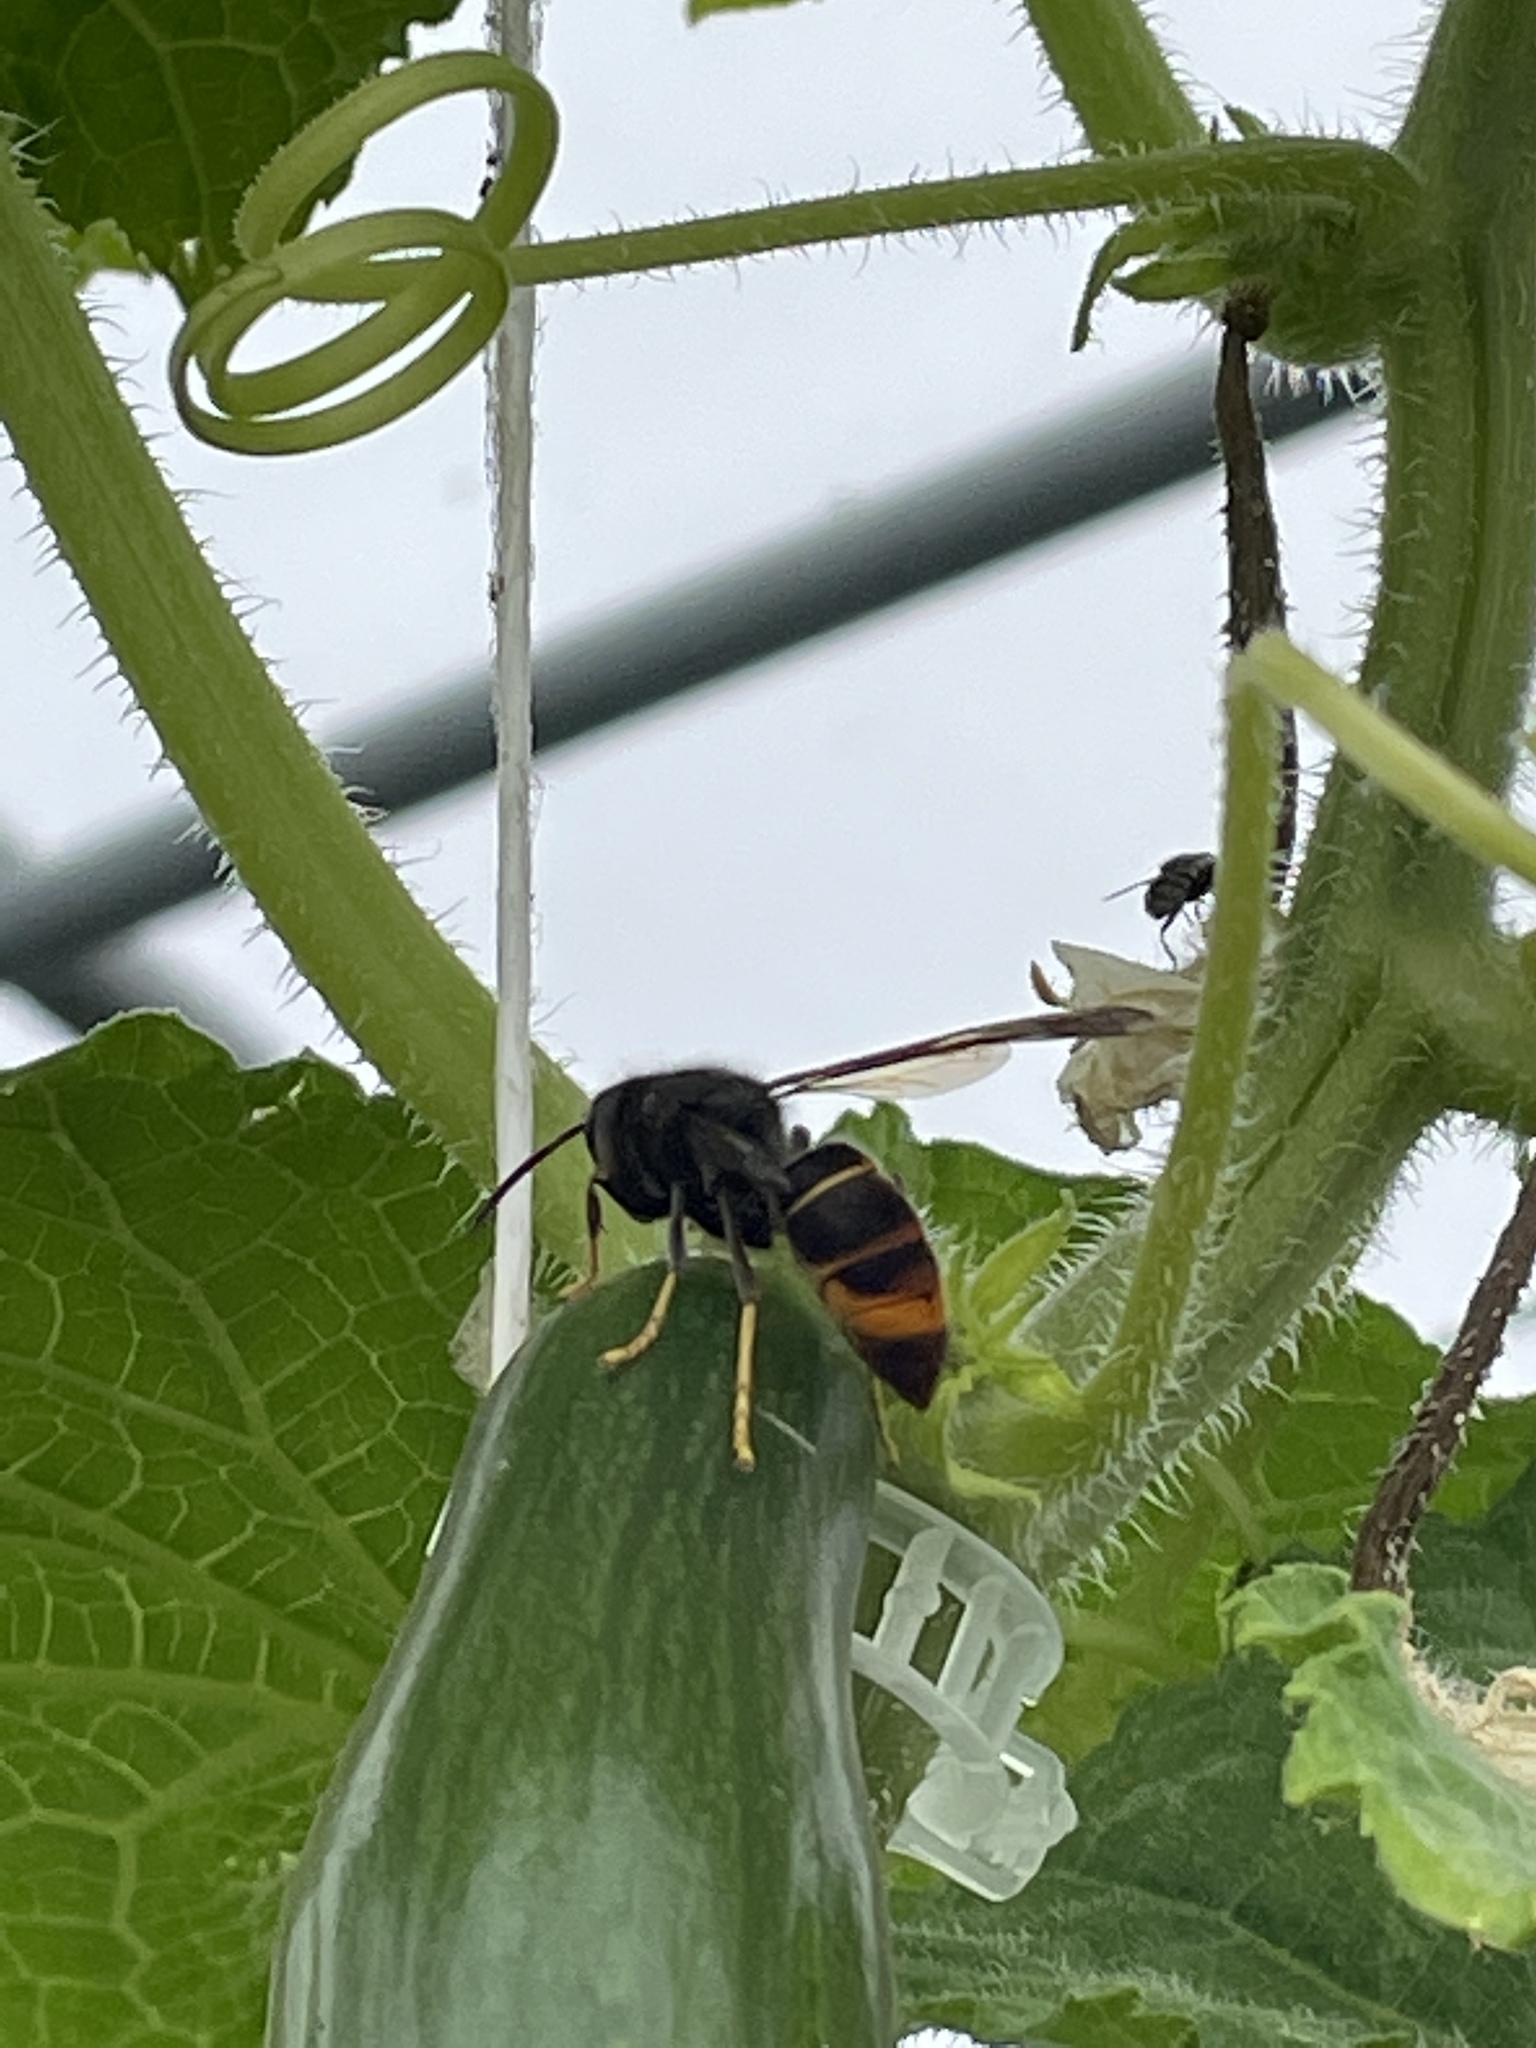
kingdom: Animalia
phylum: Arthropoda
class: Insecta
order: Hymenoptera
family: Vespidae
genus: Vespa
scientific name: Vespa velutina
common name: Asian hornet
